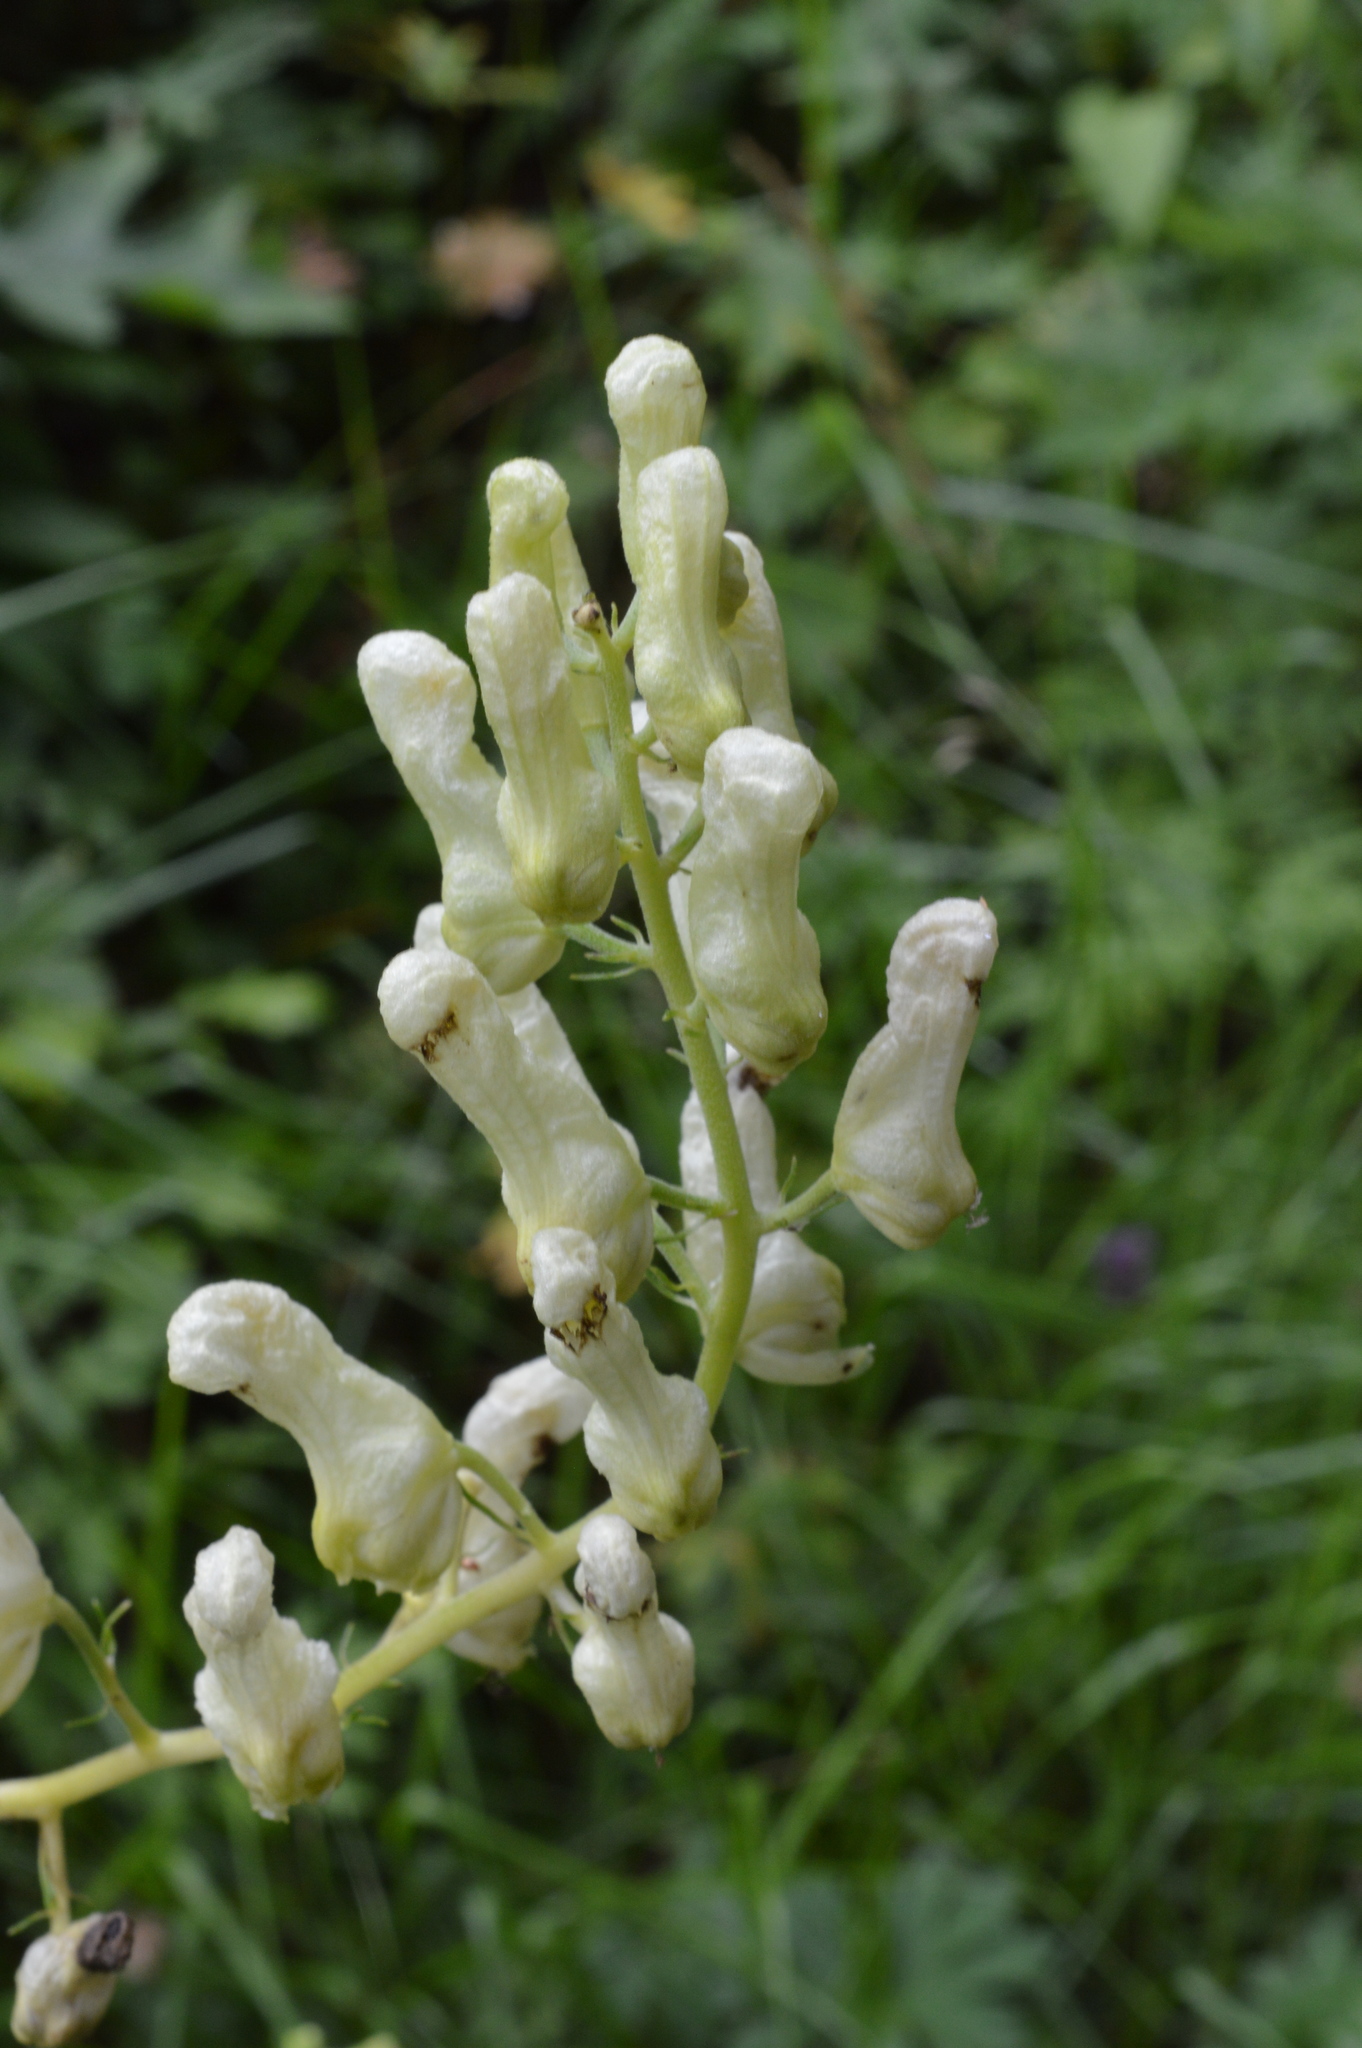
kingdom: Plantae
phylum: Tracheophyta
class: Magnoliopsida
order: Ranunculales
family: Ranunculaceae
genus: Aconitum
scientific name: Aconitum lycoctonum
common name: Wolf's-bane
